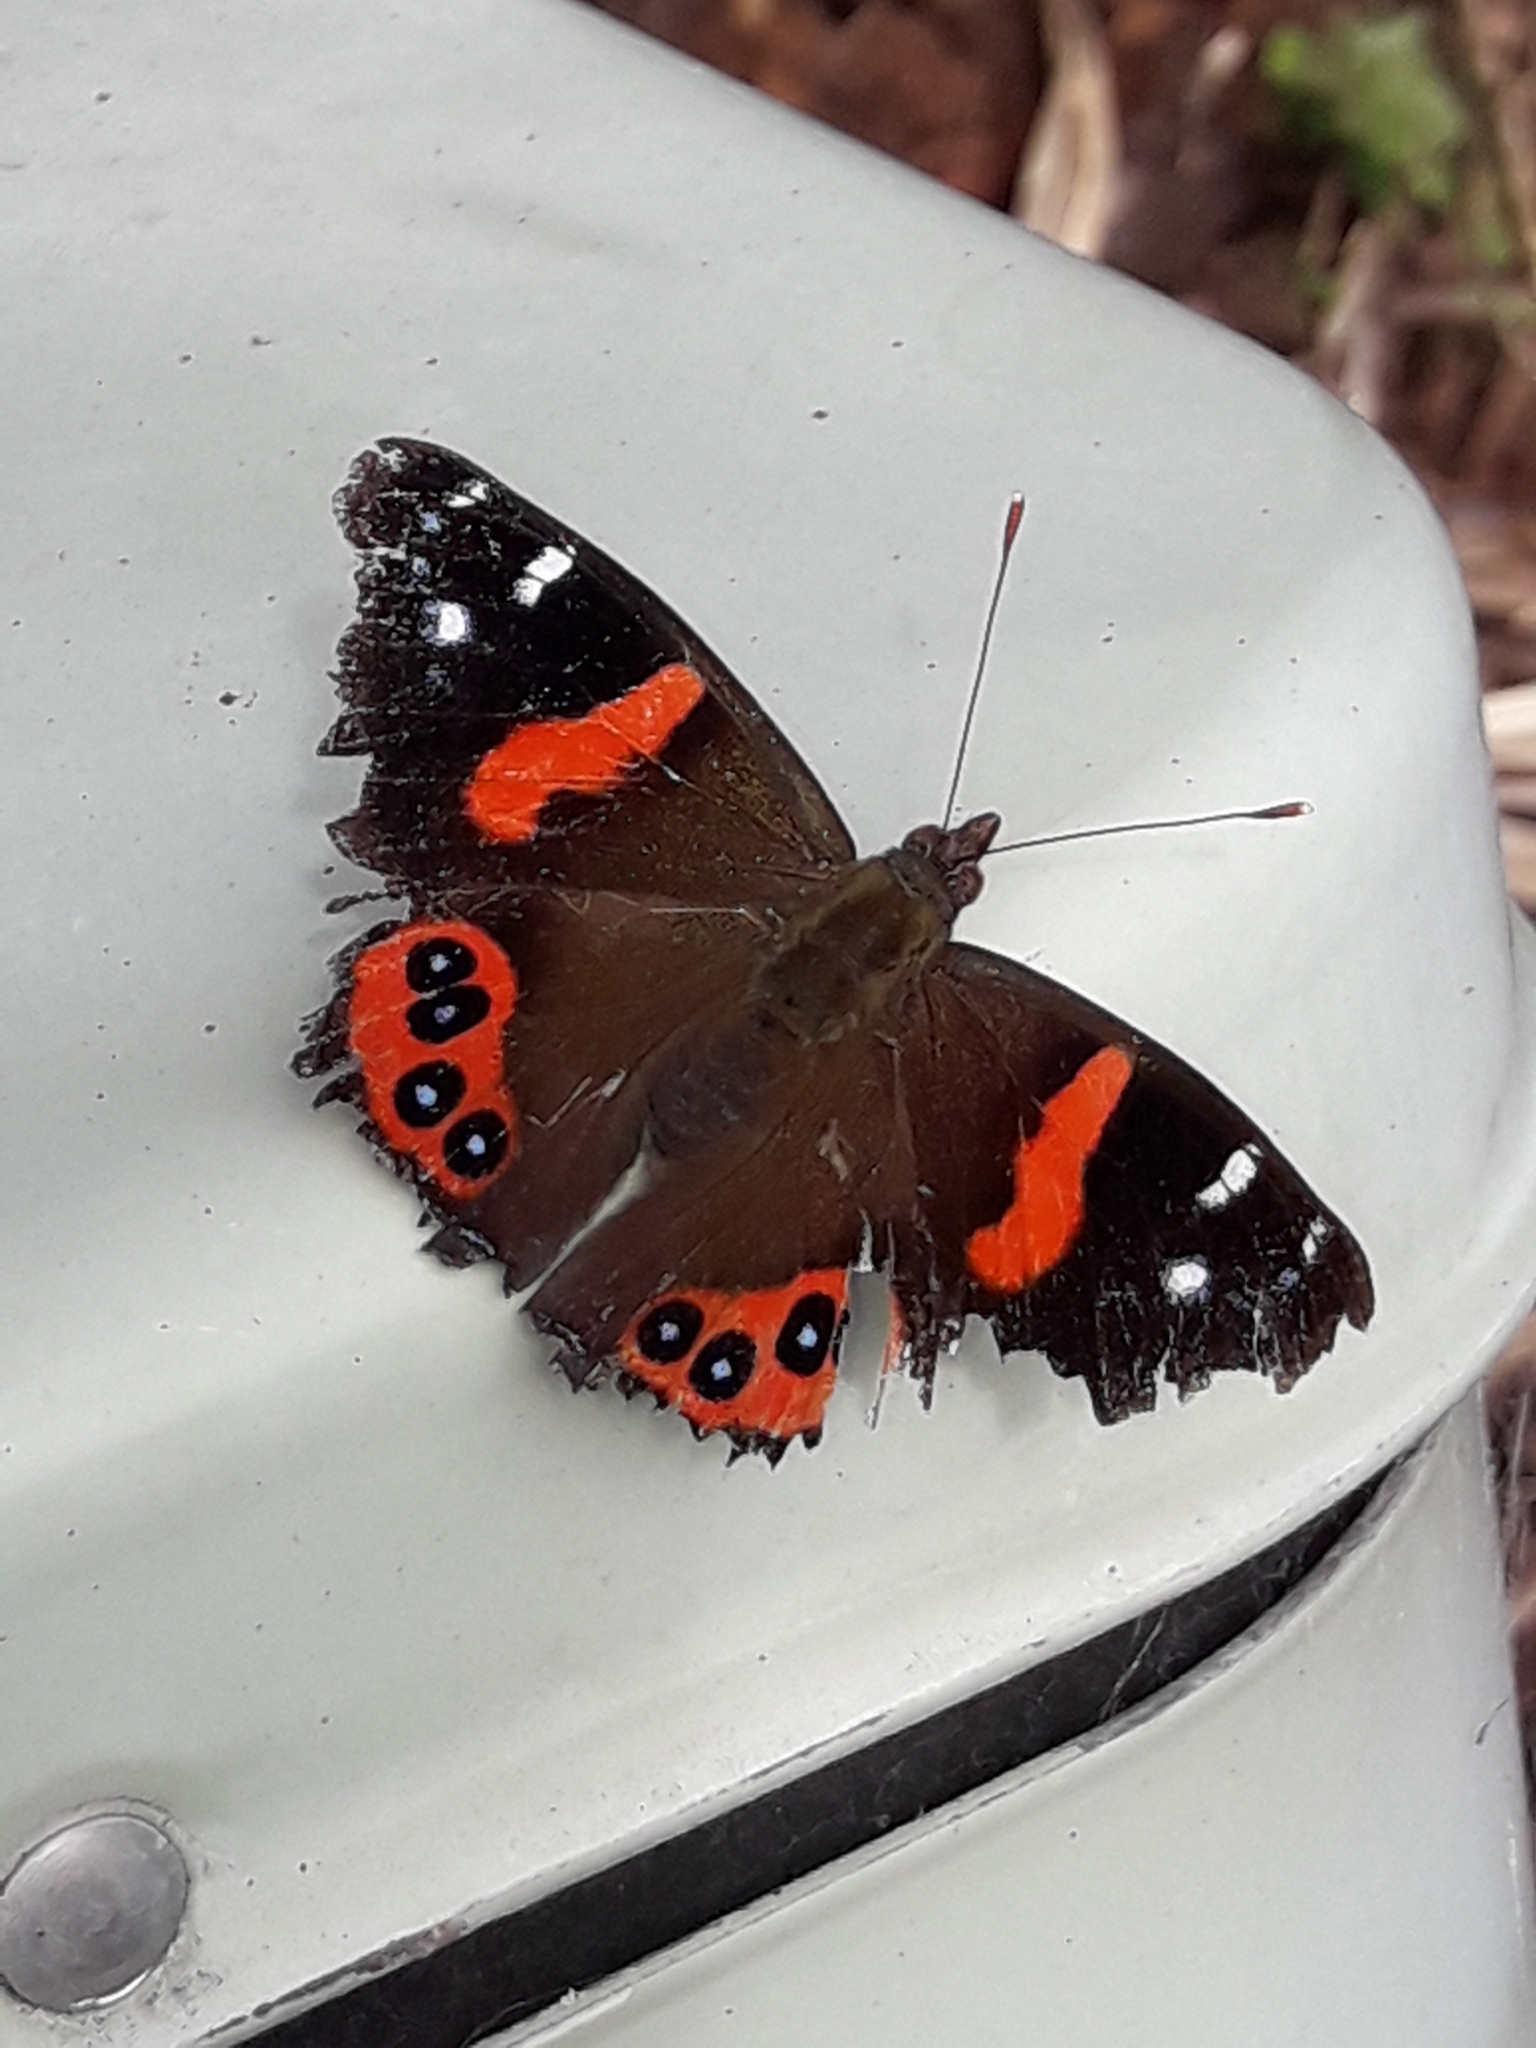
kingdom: Animalia
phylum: Arthropoda
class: Insecta
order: Lepidoptera
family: Nymphalidae
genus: Vanessa
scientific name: Vanessa gonerilla
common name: New zealand red admiral
